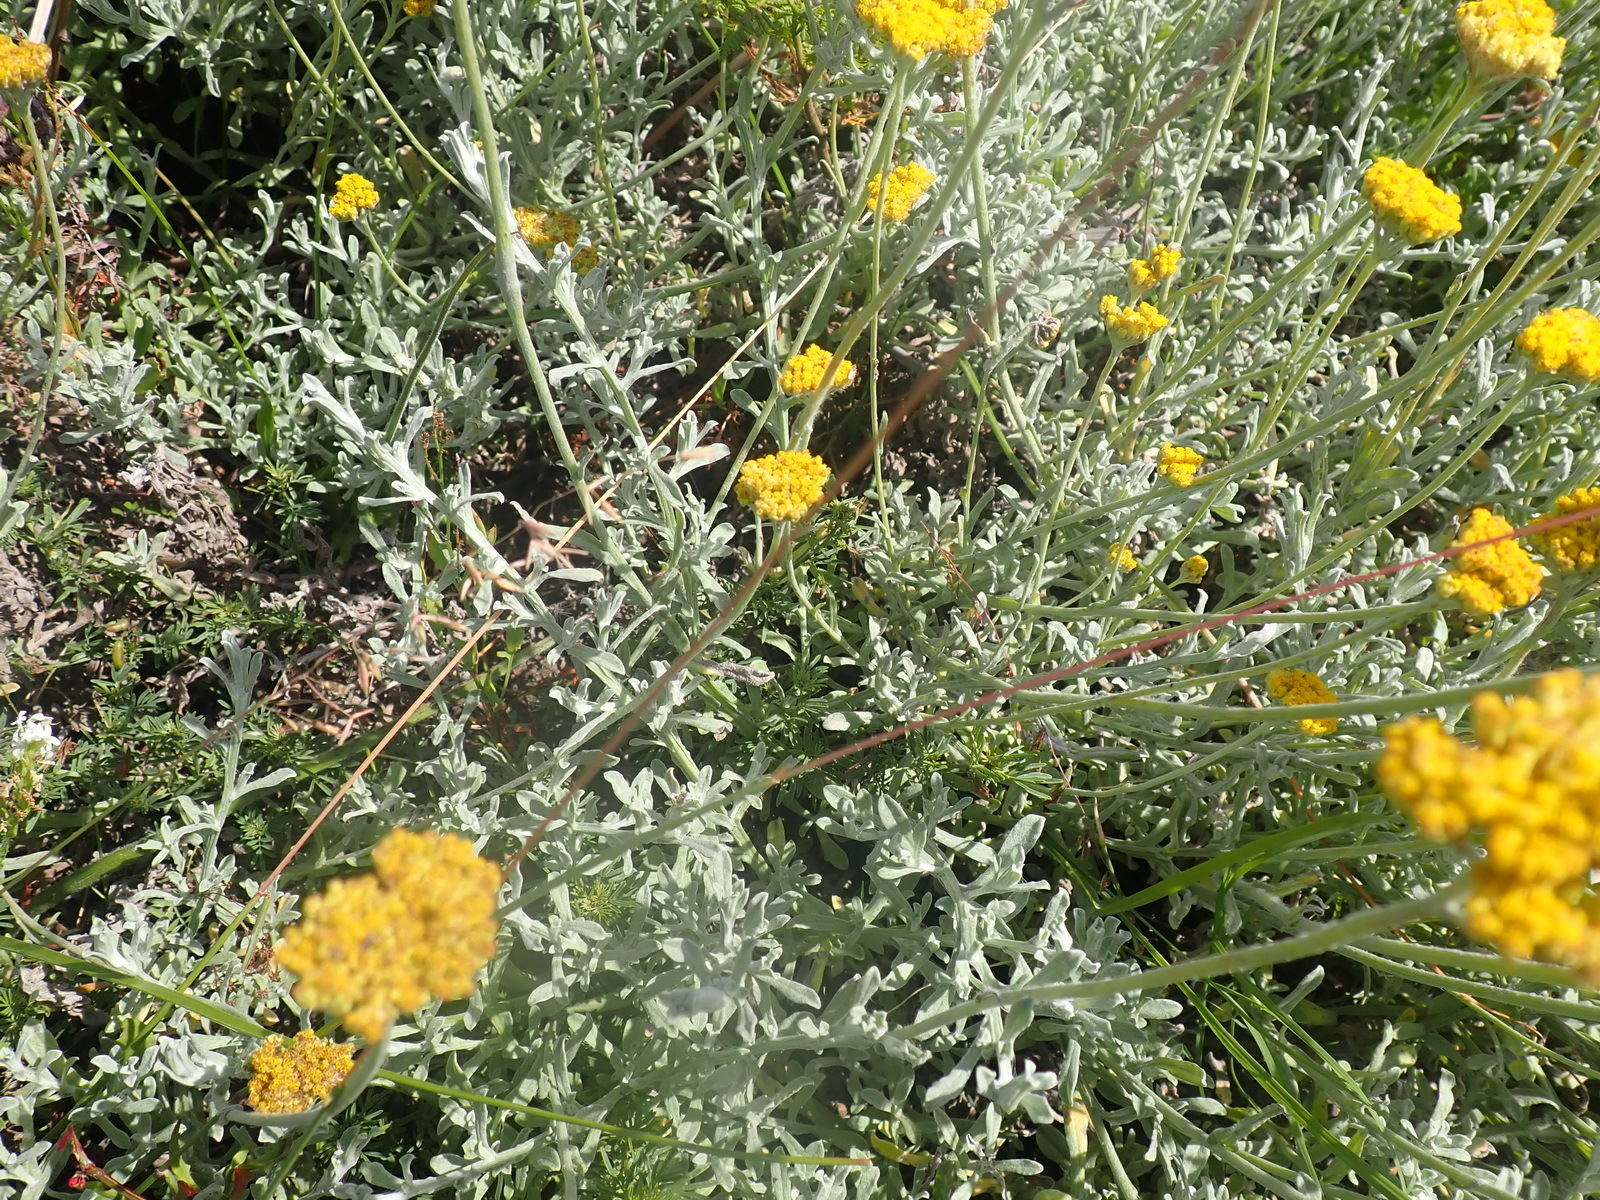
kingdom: Plantae
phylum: Tracheophyta
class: Magnoliopsida
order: Asterales
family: Asteraceae
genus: Helichrysum
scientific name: Helichrysum odoratissimum
